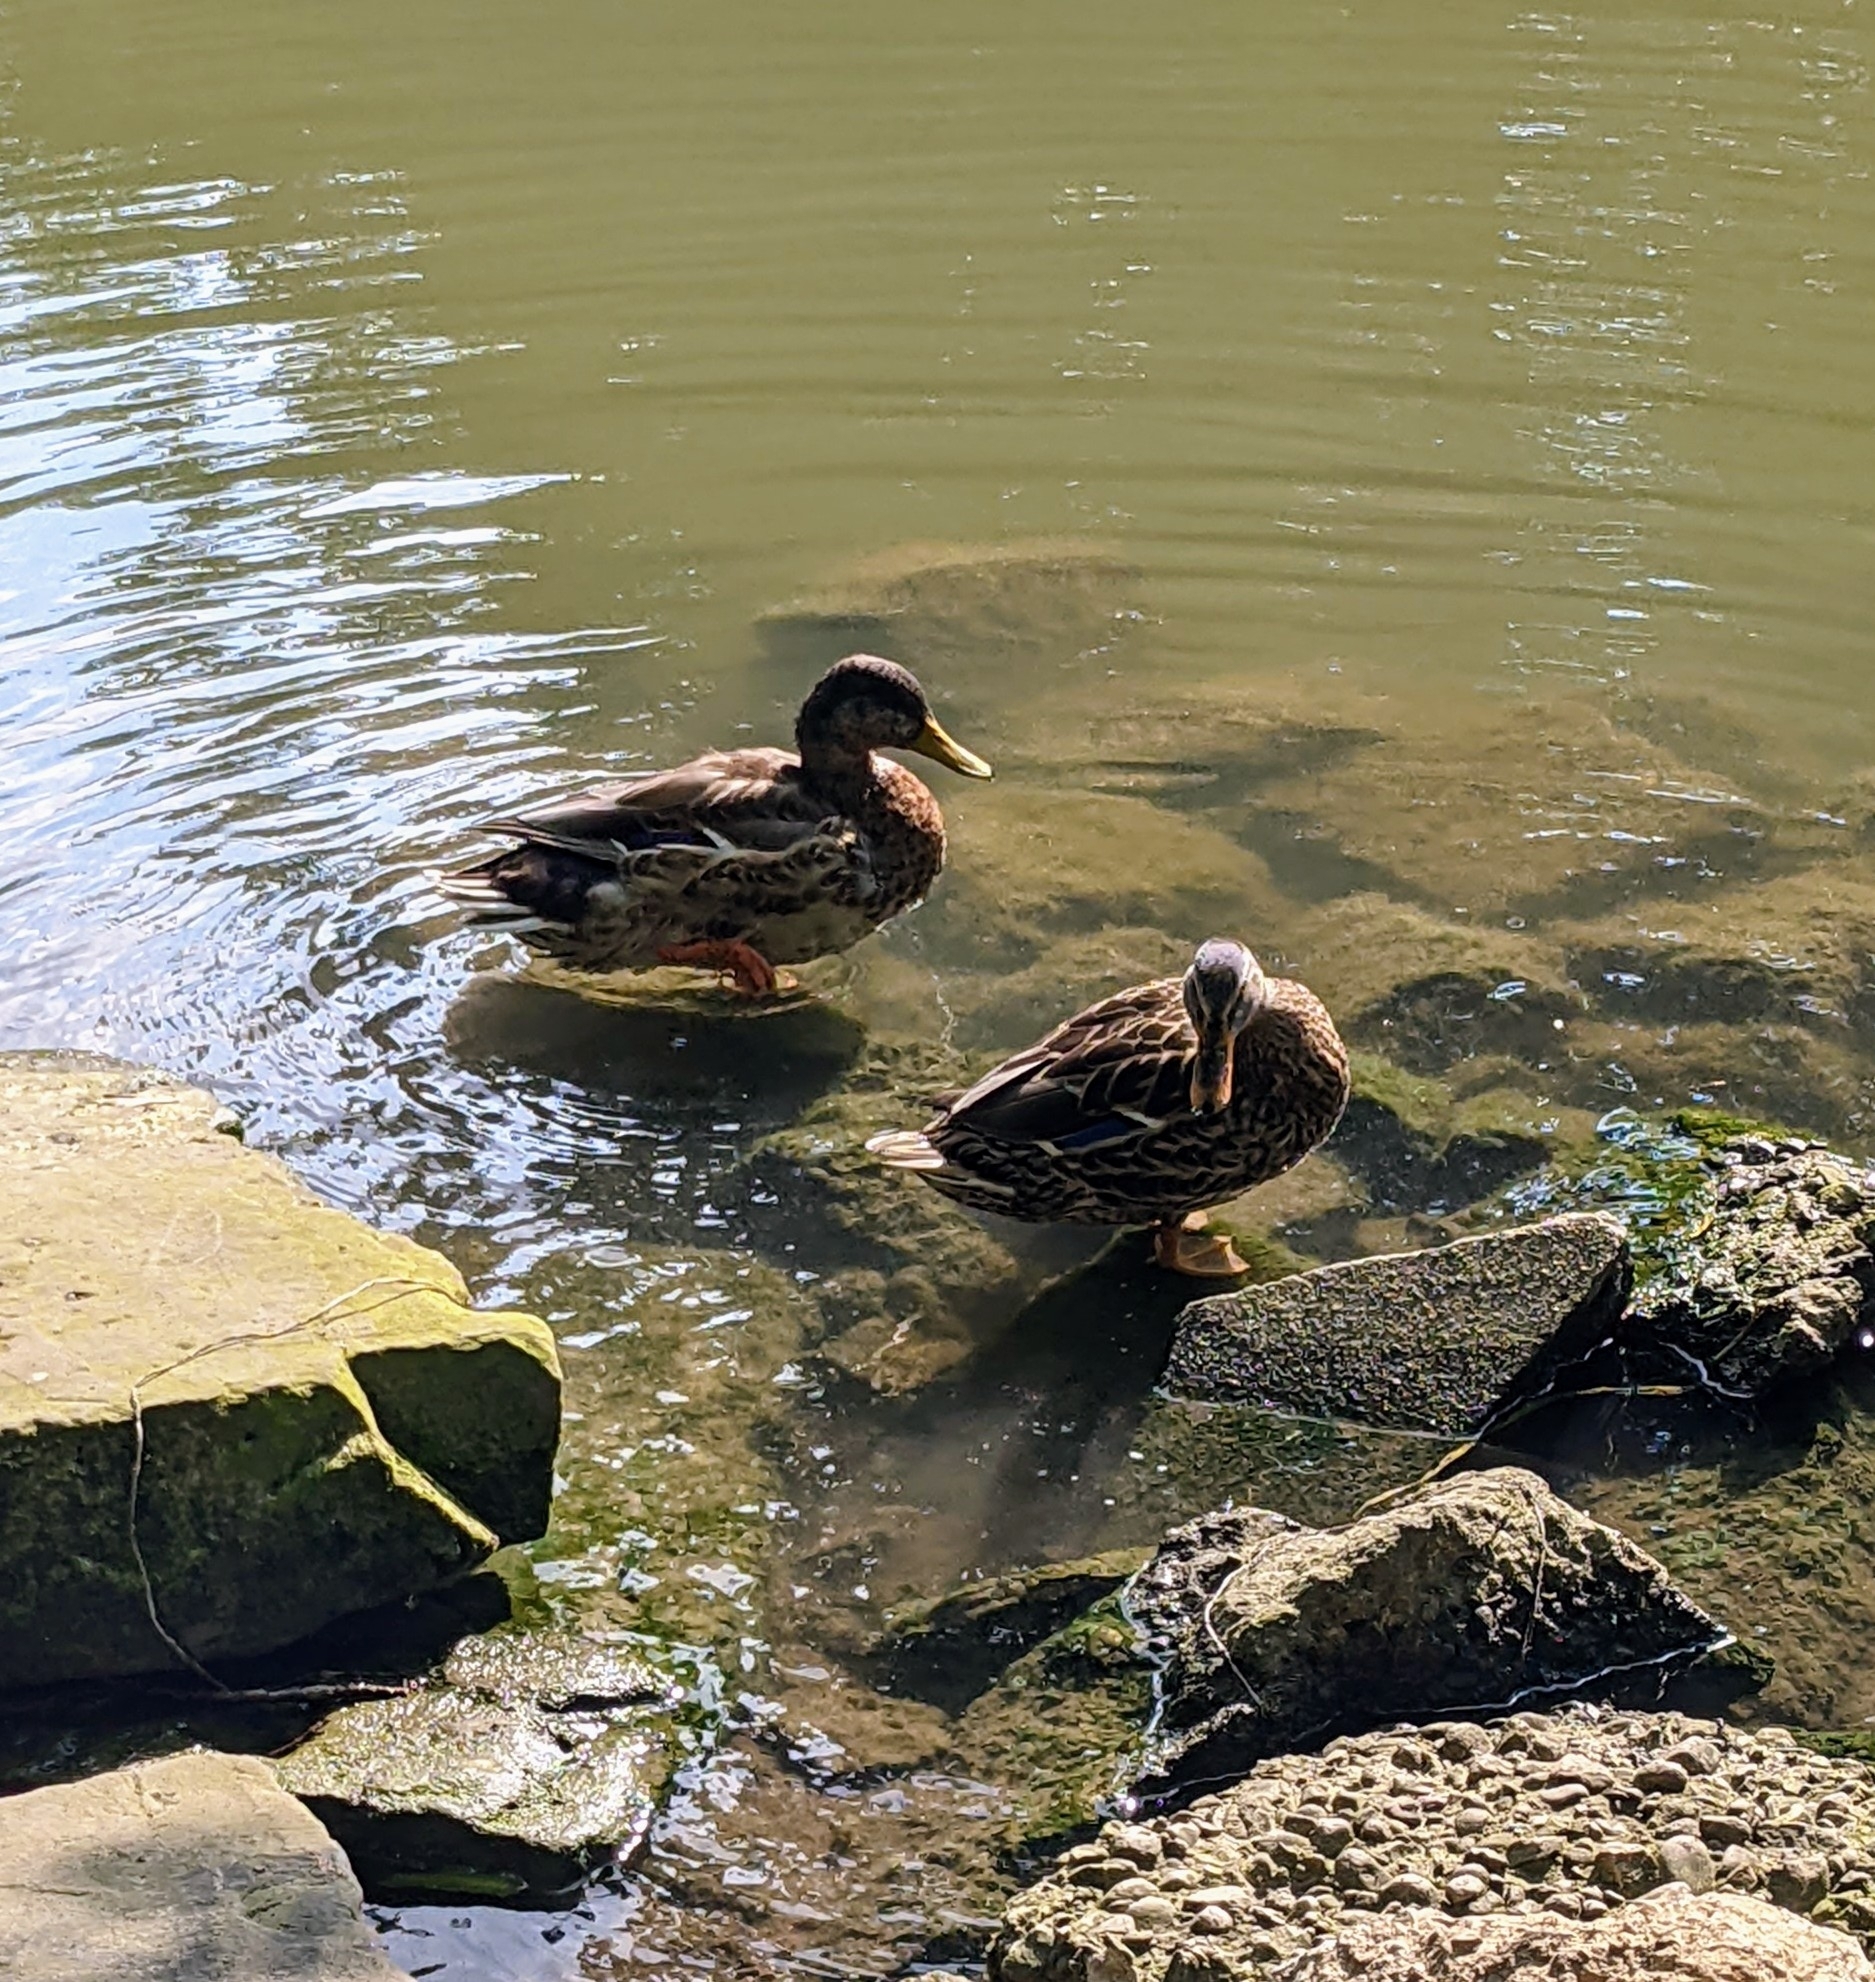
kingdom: Animalia
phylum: Chordata
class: Aves
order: Anseriformes
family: Anatidae
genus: Anas
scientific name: Anas platyrhynchos
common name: Mallard
